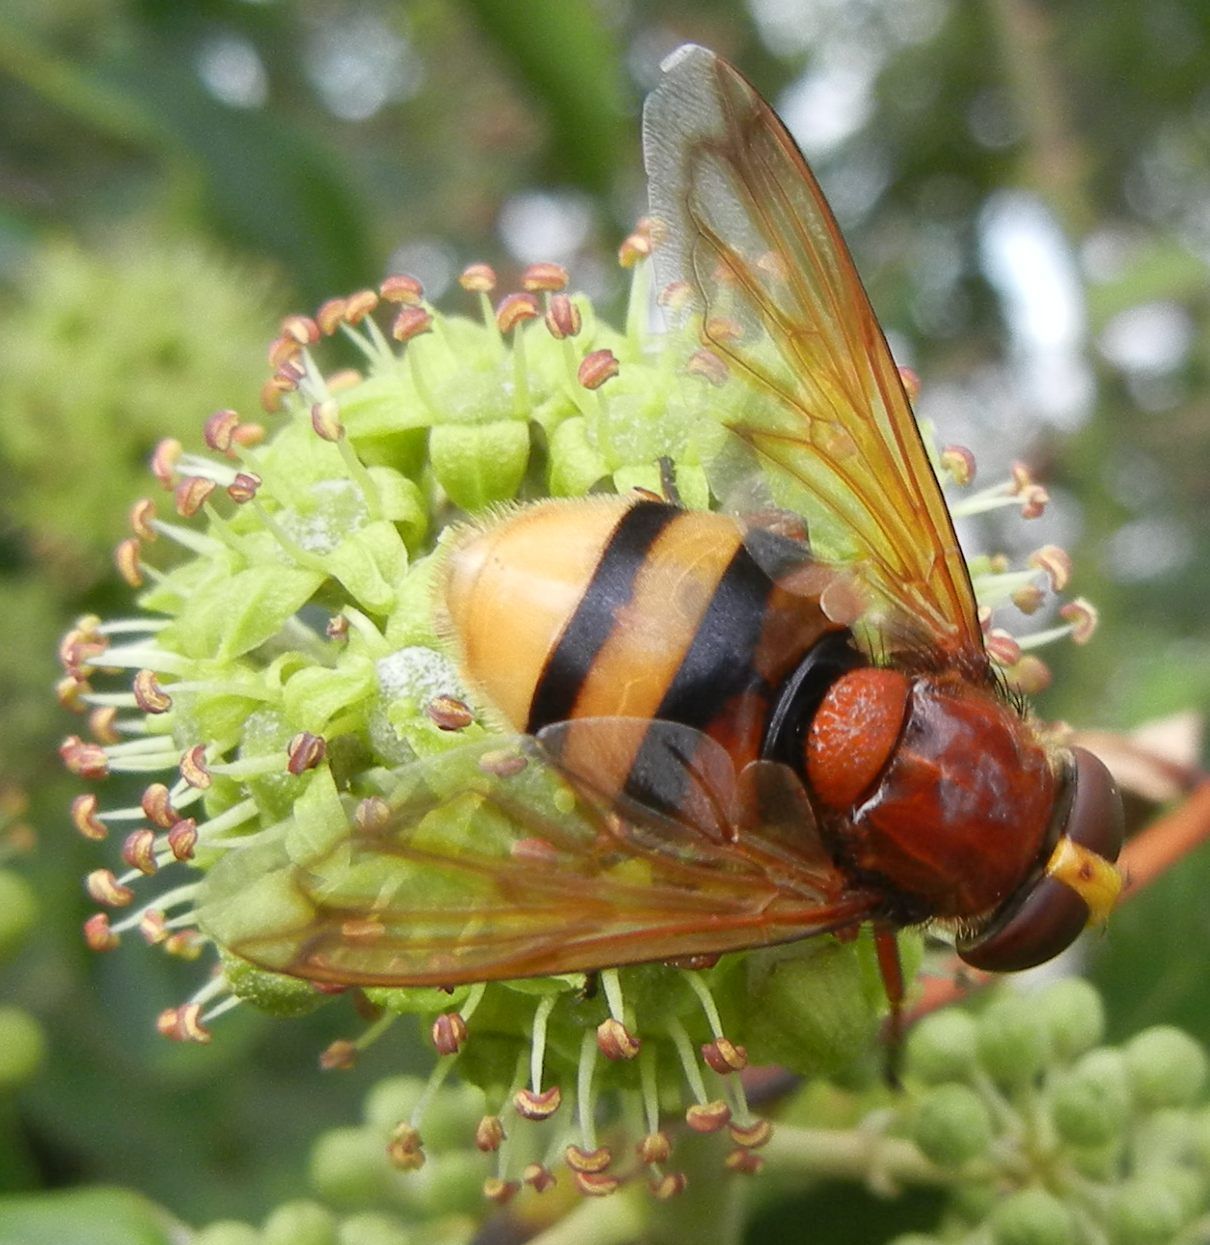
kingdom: Animalia
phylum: Arthropoda
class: Insecta
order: Diptera
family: Syrphidae
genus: Volucella
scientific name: Volucella zonaria
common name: Hornet hoverfly
